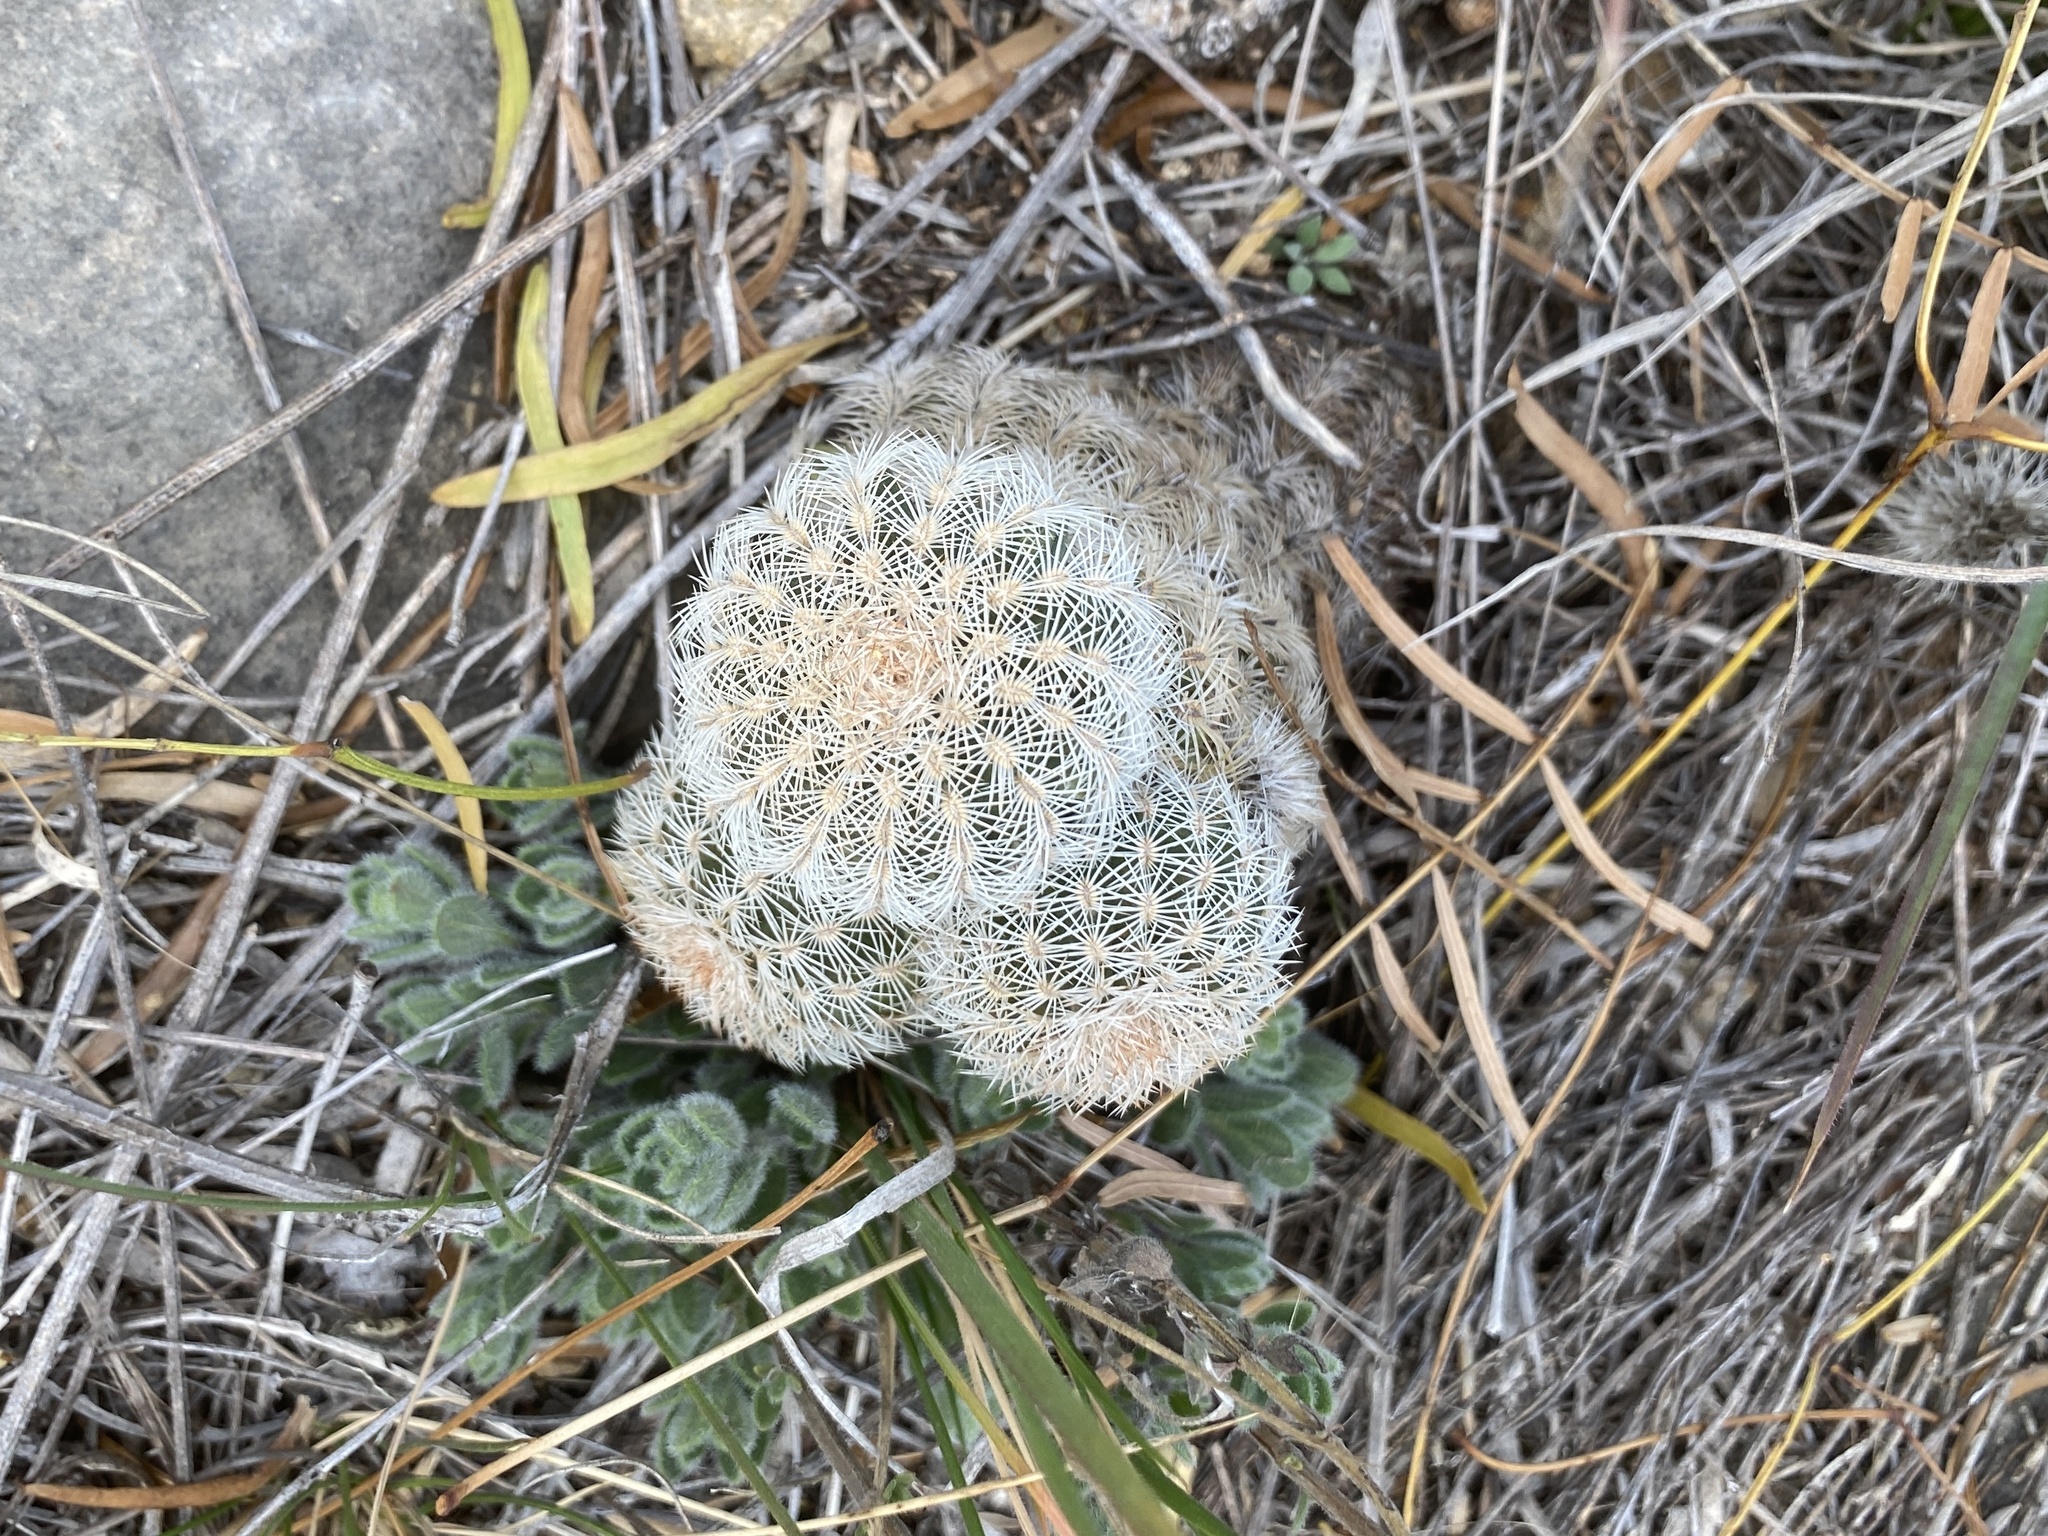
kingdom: Plantae
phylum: Tracheophyta
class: Magnoliopsida
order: Caryophyllales
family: Cactaceae
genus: Echinocereus
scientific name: Echinocereus reichenbachii
